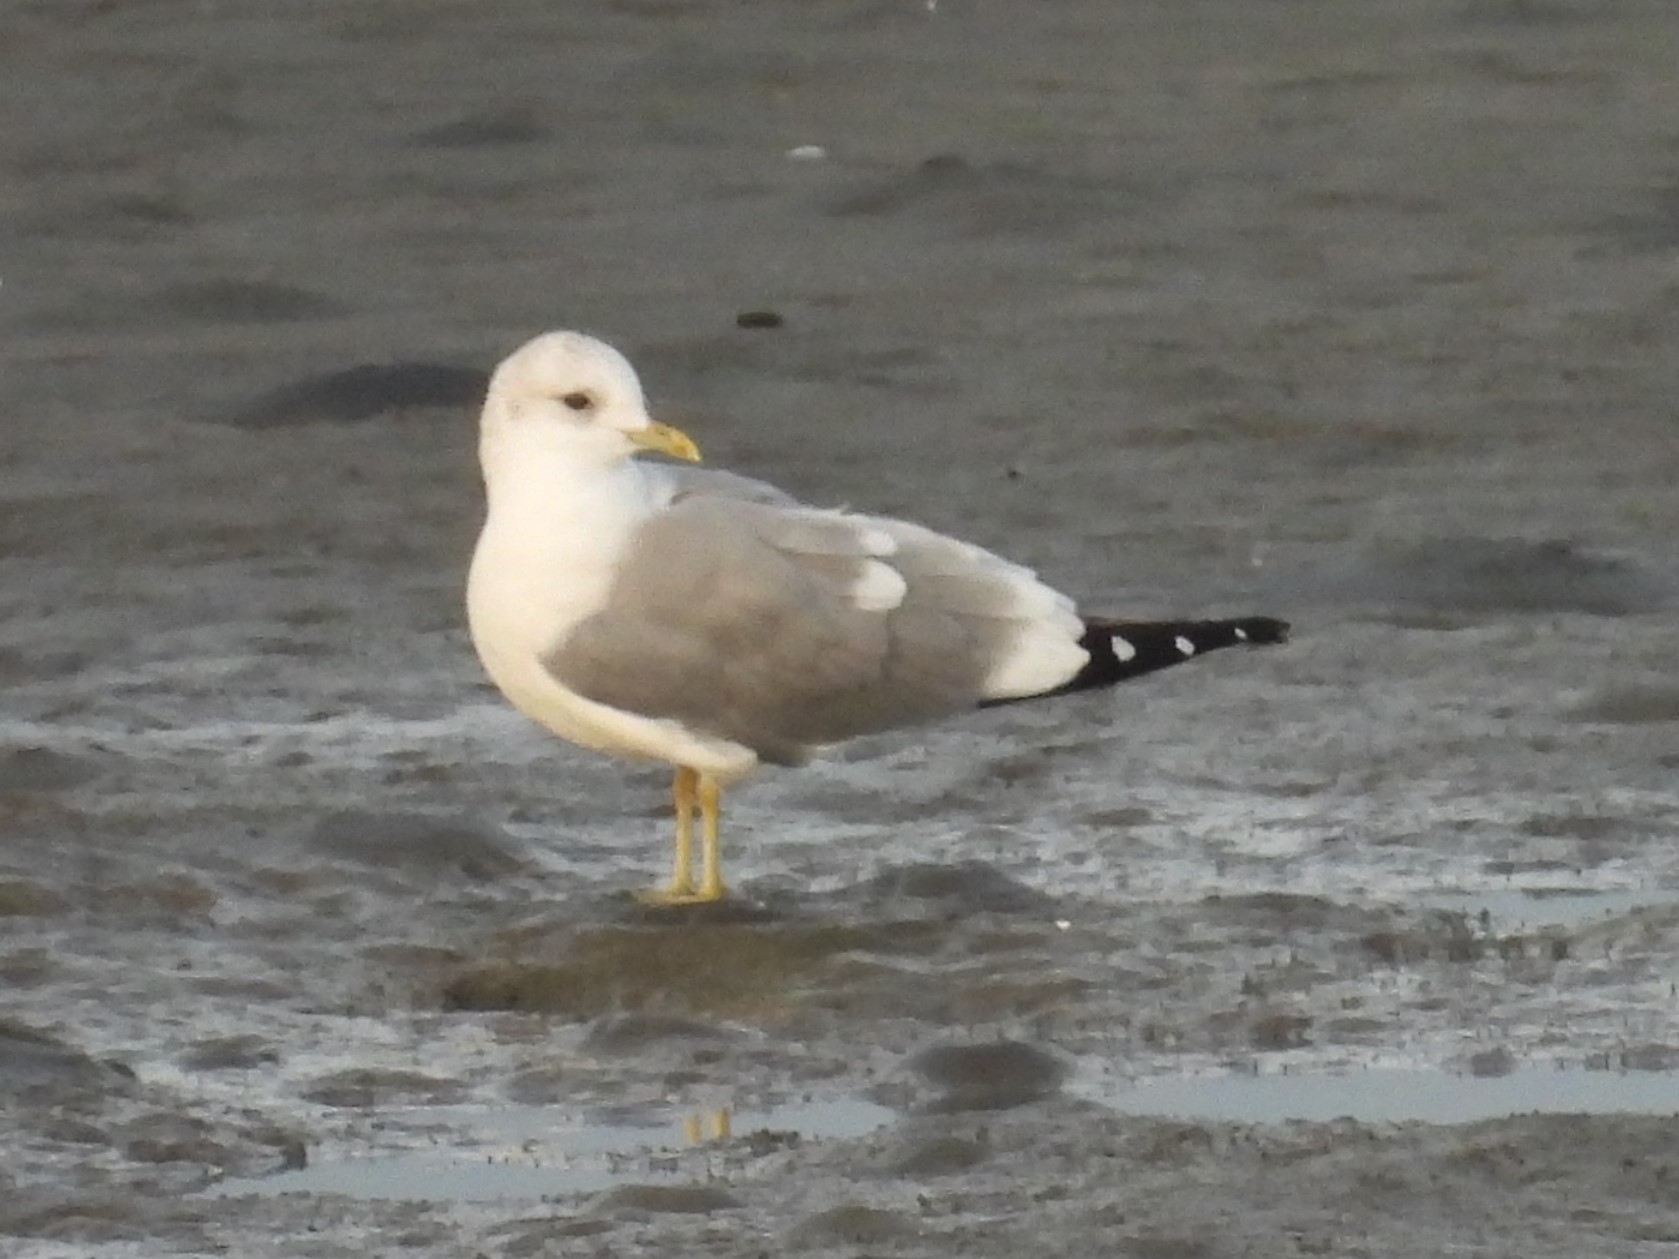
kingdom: Animalia
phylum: Chordata
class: Aves
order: Charadriiformes
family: Laridae
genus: Larus
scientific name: Larus brachyrhynchus
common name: Short-billed gull
